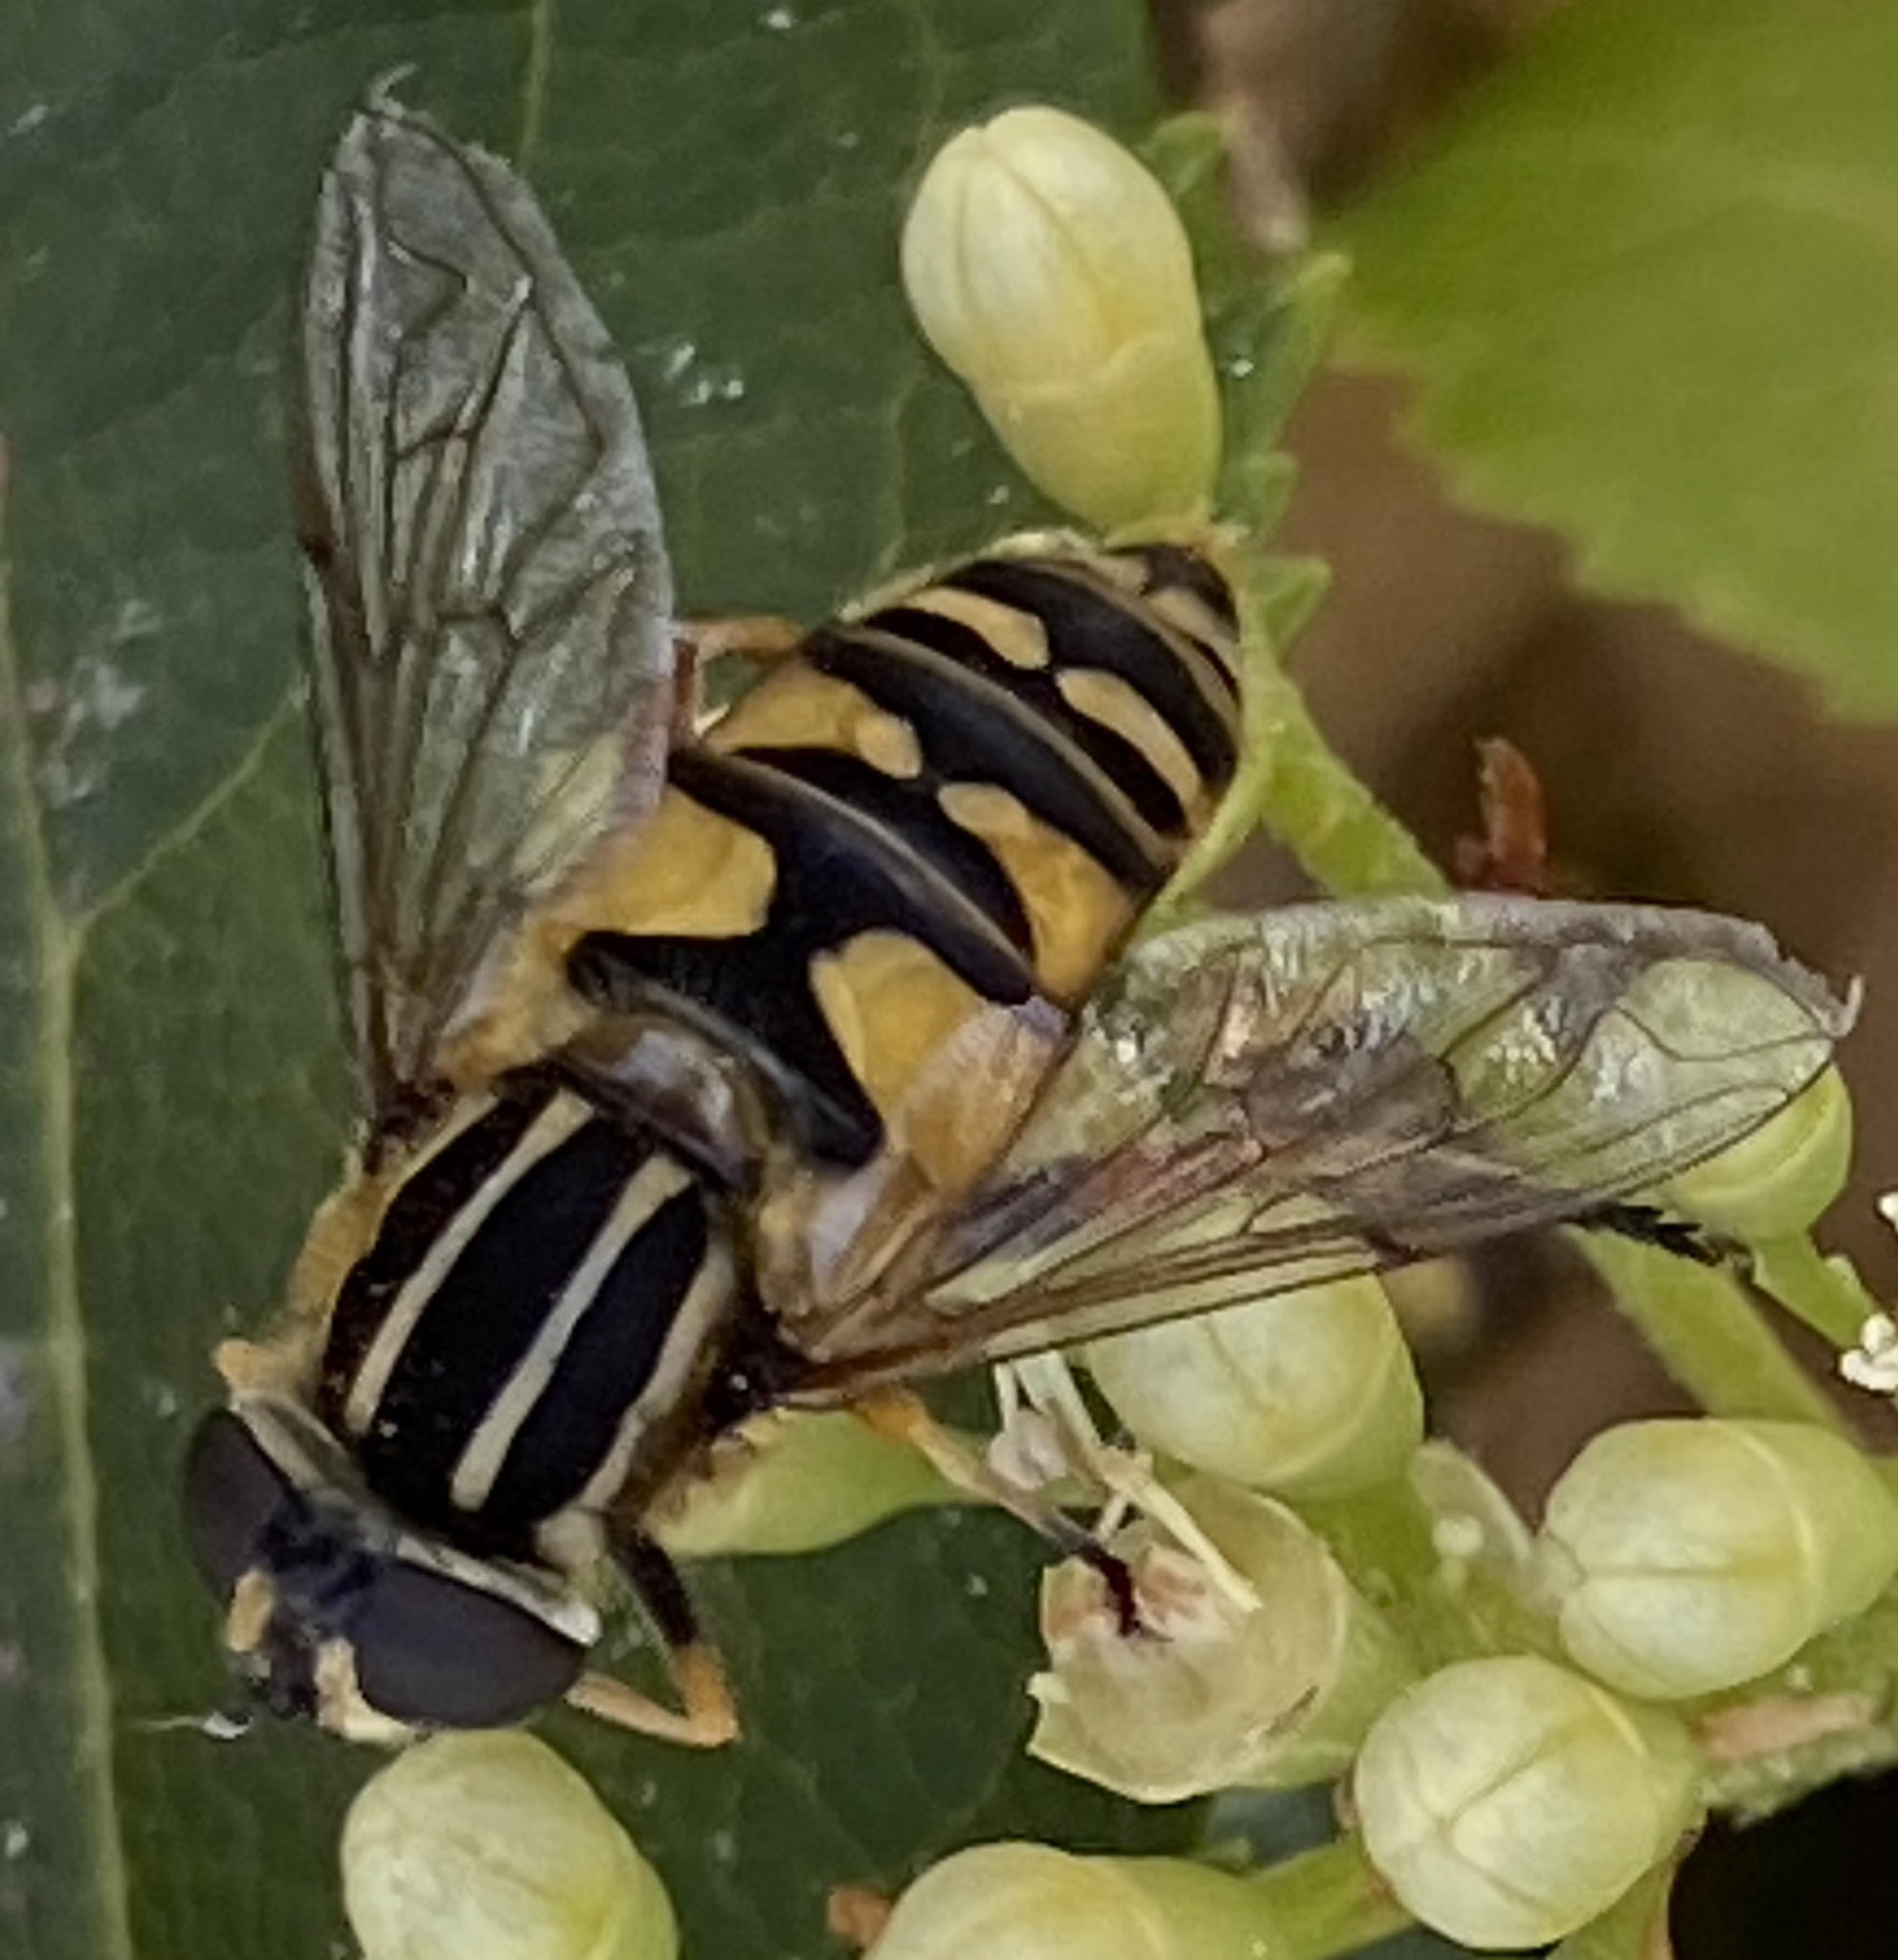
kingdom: Animalia
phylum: Arthropoda
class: Insecta
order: Diptera
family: Syrphidae
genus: Helophilus
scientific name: Helophilus pendulus
